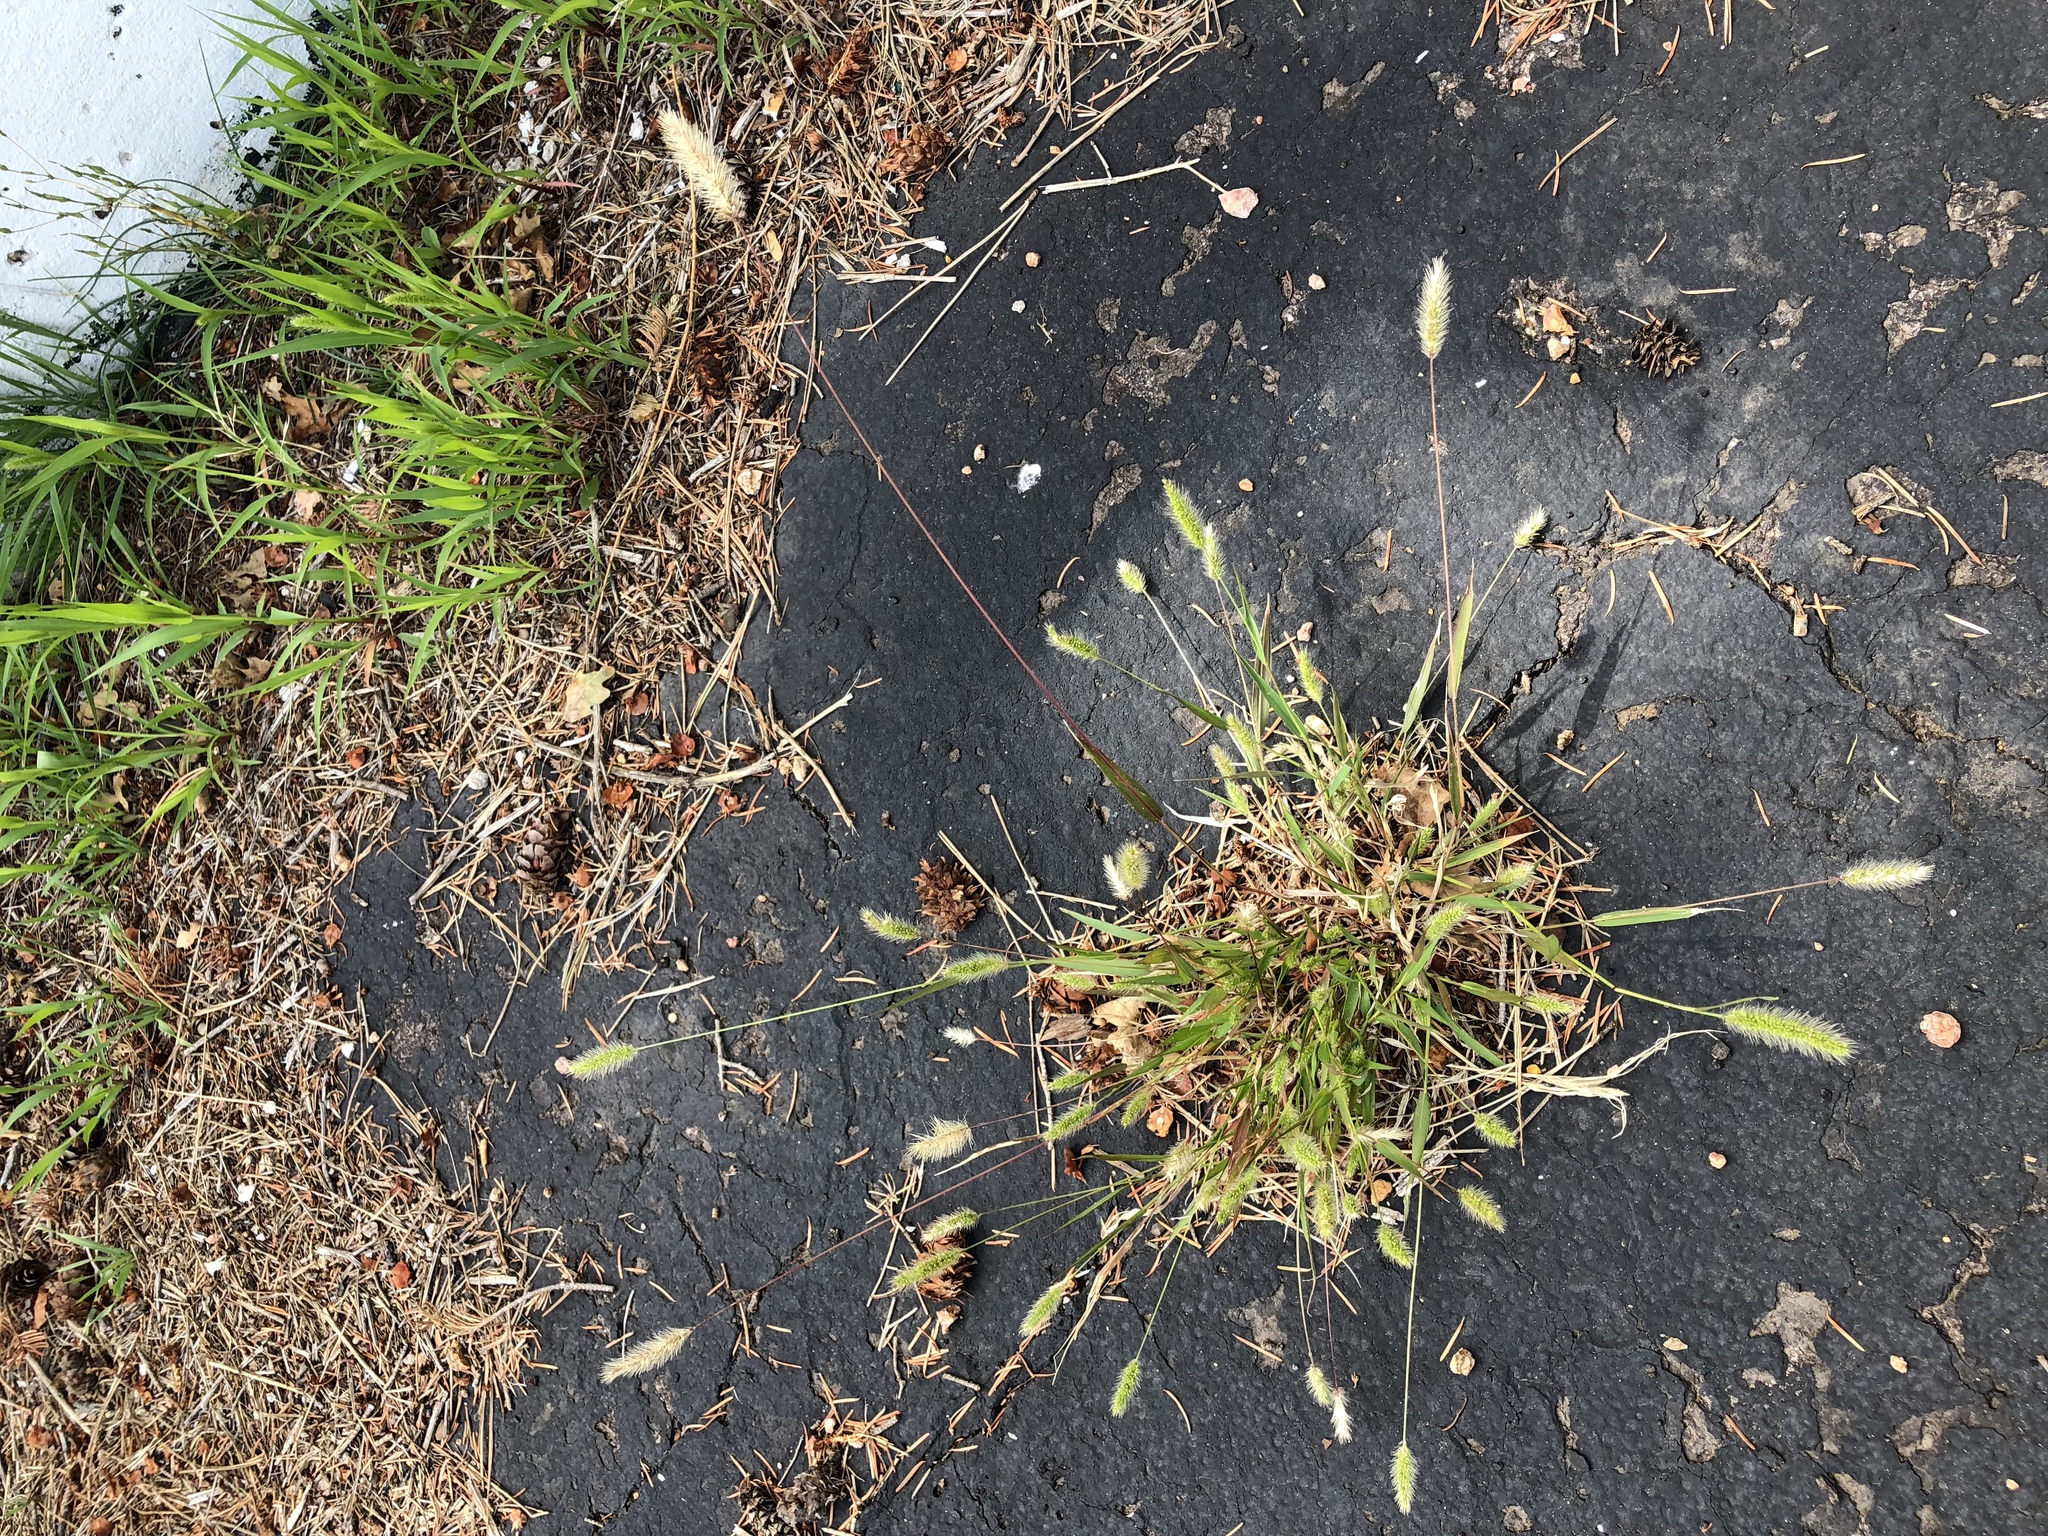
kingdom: Plantae
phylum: Tracheophyta
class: Liliopsida
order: Poales
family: Poaceae
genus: Setaria
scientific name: Setaria viridis
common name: Green bristlegrass
